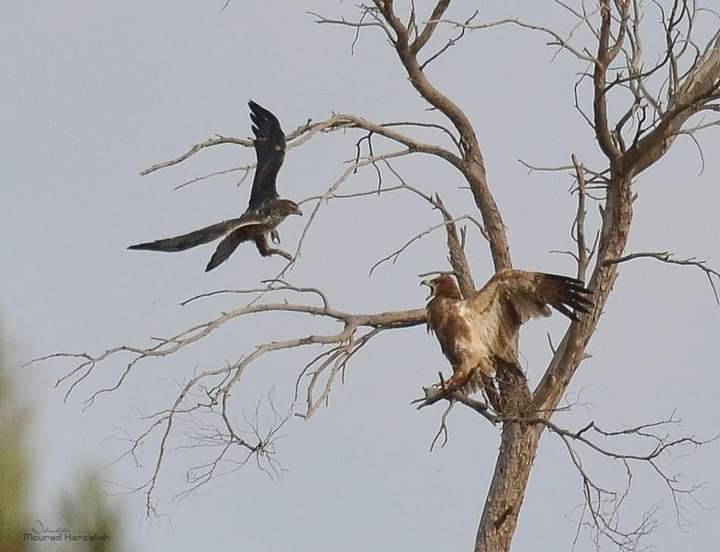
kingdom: Animalia
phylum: Chordata
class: Aves
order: Accipitriformes
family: Accipitridae
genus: Aquila
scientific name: Aquila rapax
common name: Tawny eagle
